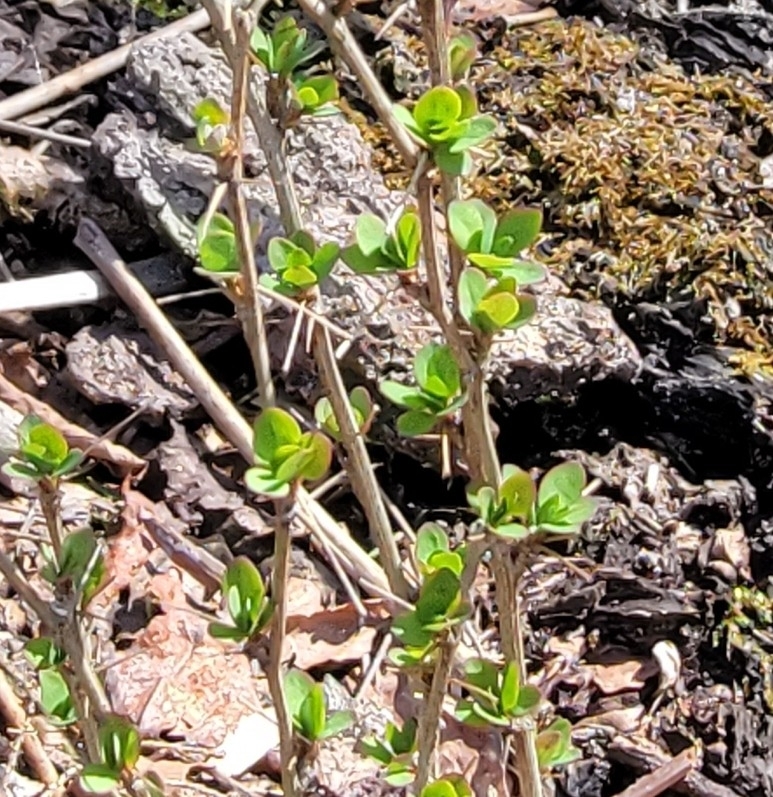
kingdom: Plantae
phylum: Tracheophyta
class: Magnoliopsida
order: Ranunculales
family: Berberidaceae
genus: Berberis
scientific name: Berberis thunbergii
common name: Japanese barberry
